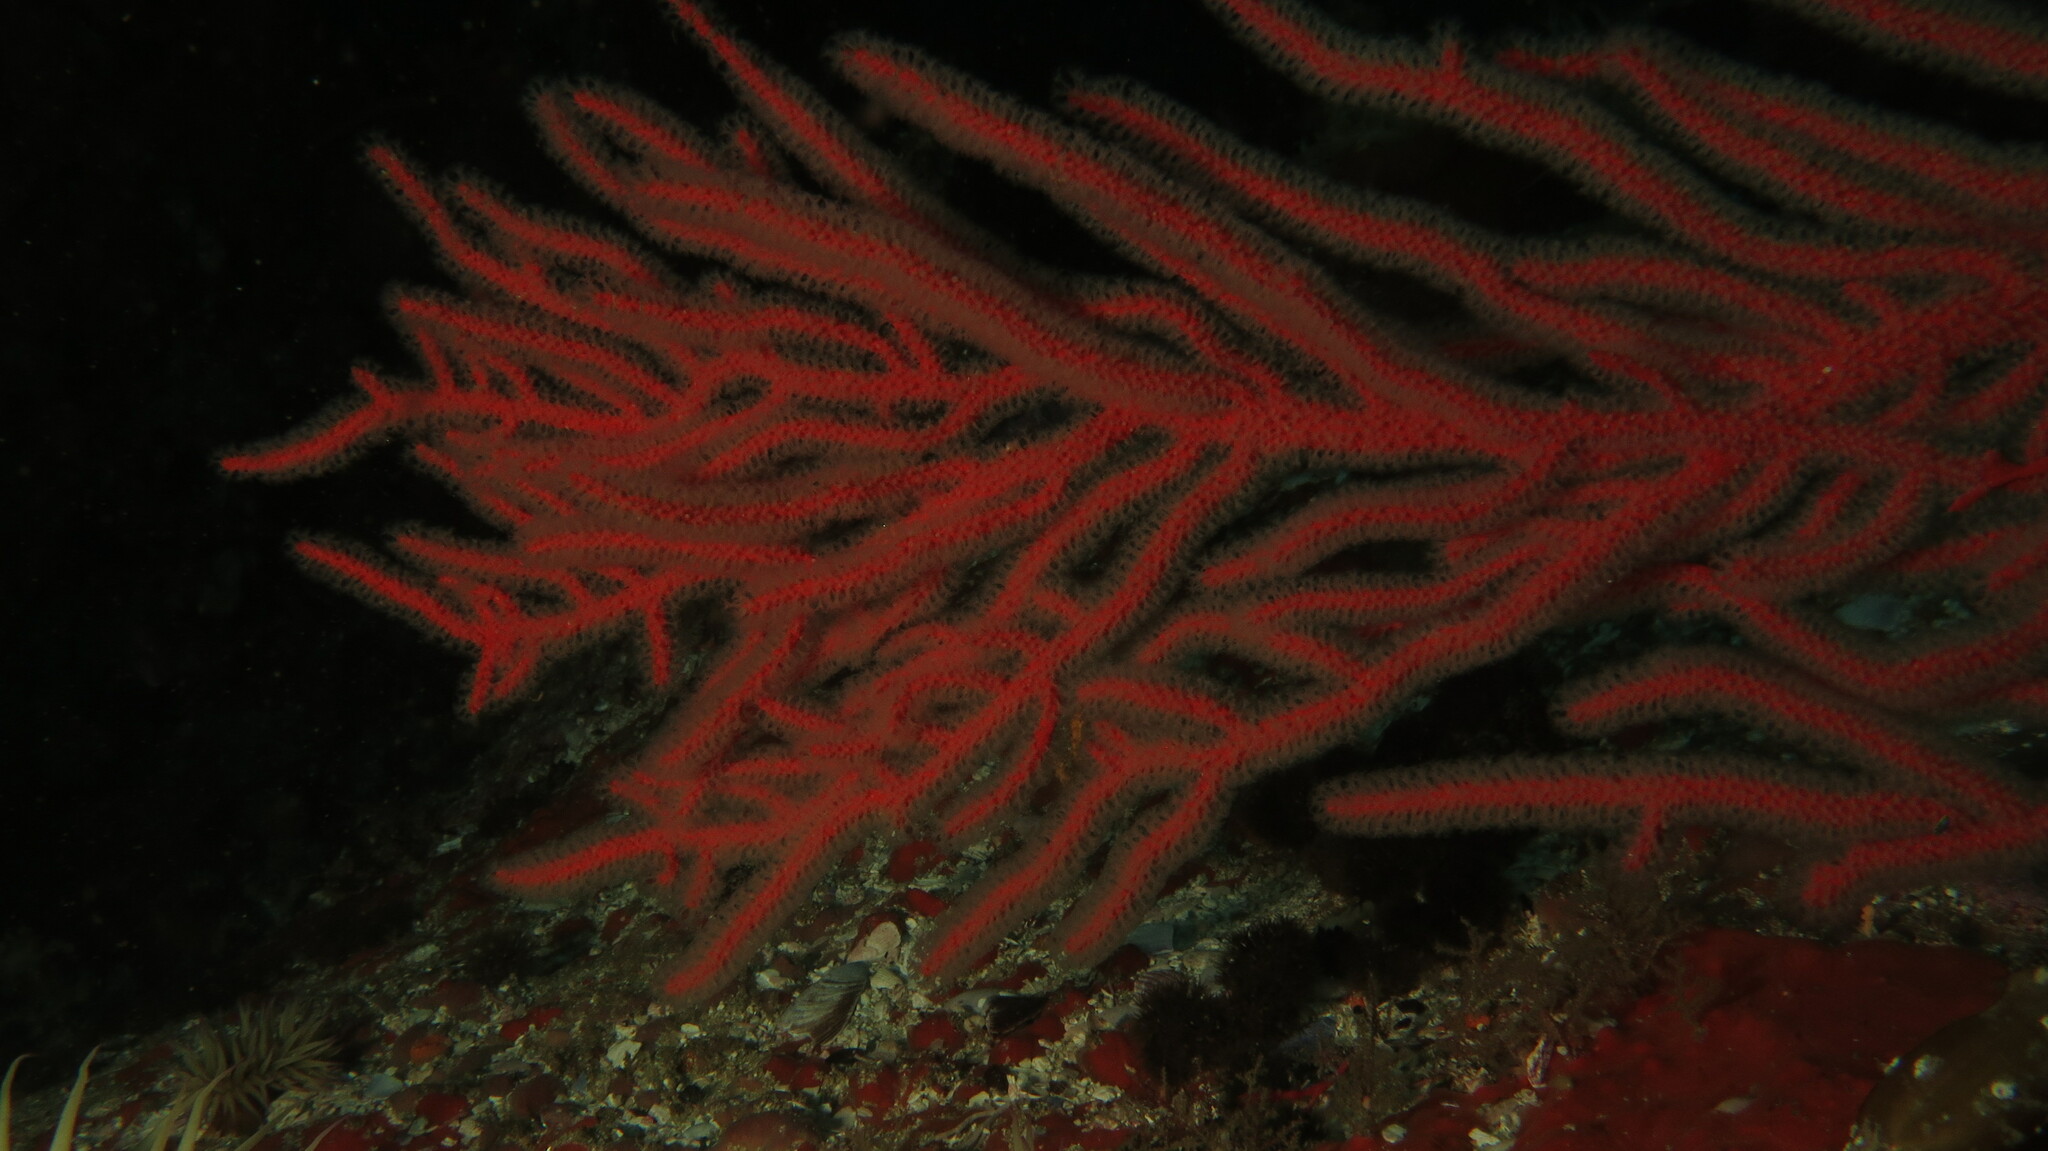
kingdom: Animalia
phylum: Cnidaria
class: Anthozoa
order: Malacalcyonacea
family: Gorgoniidae
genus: Leptogorgia
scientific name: Leptogorgia palma
